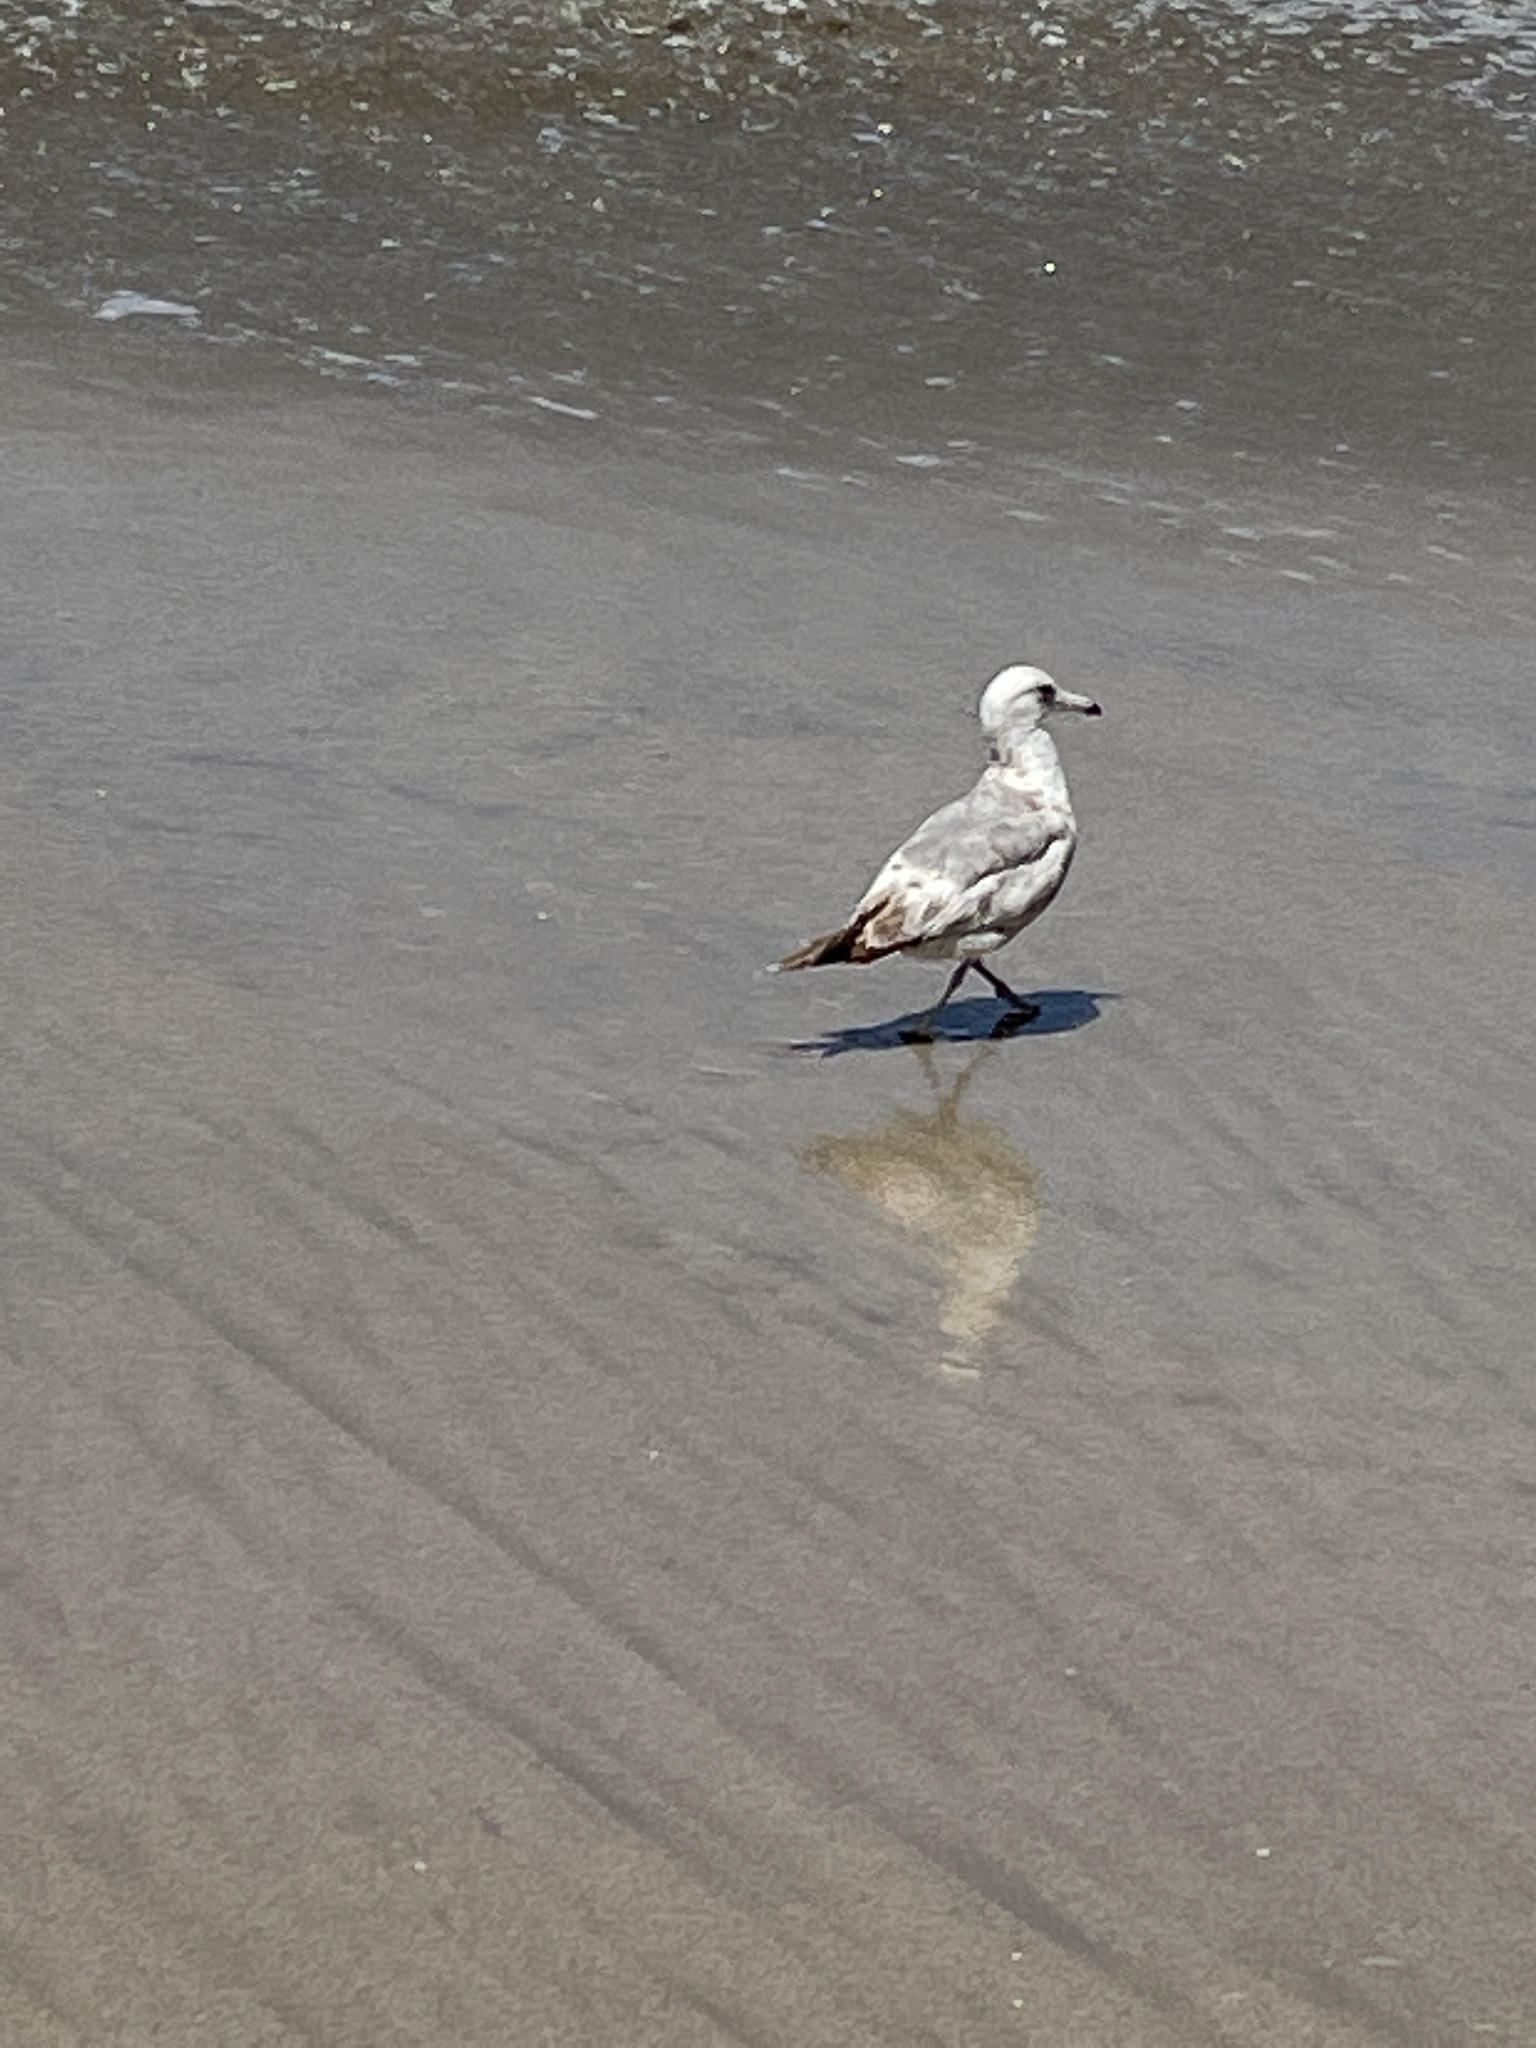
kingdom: Animalia
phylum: Chordata
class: Aves
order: Charadriiformes
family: Laridae
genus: Larus
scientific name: Larus californicus
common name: California gull
